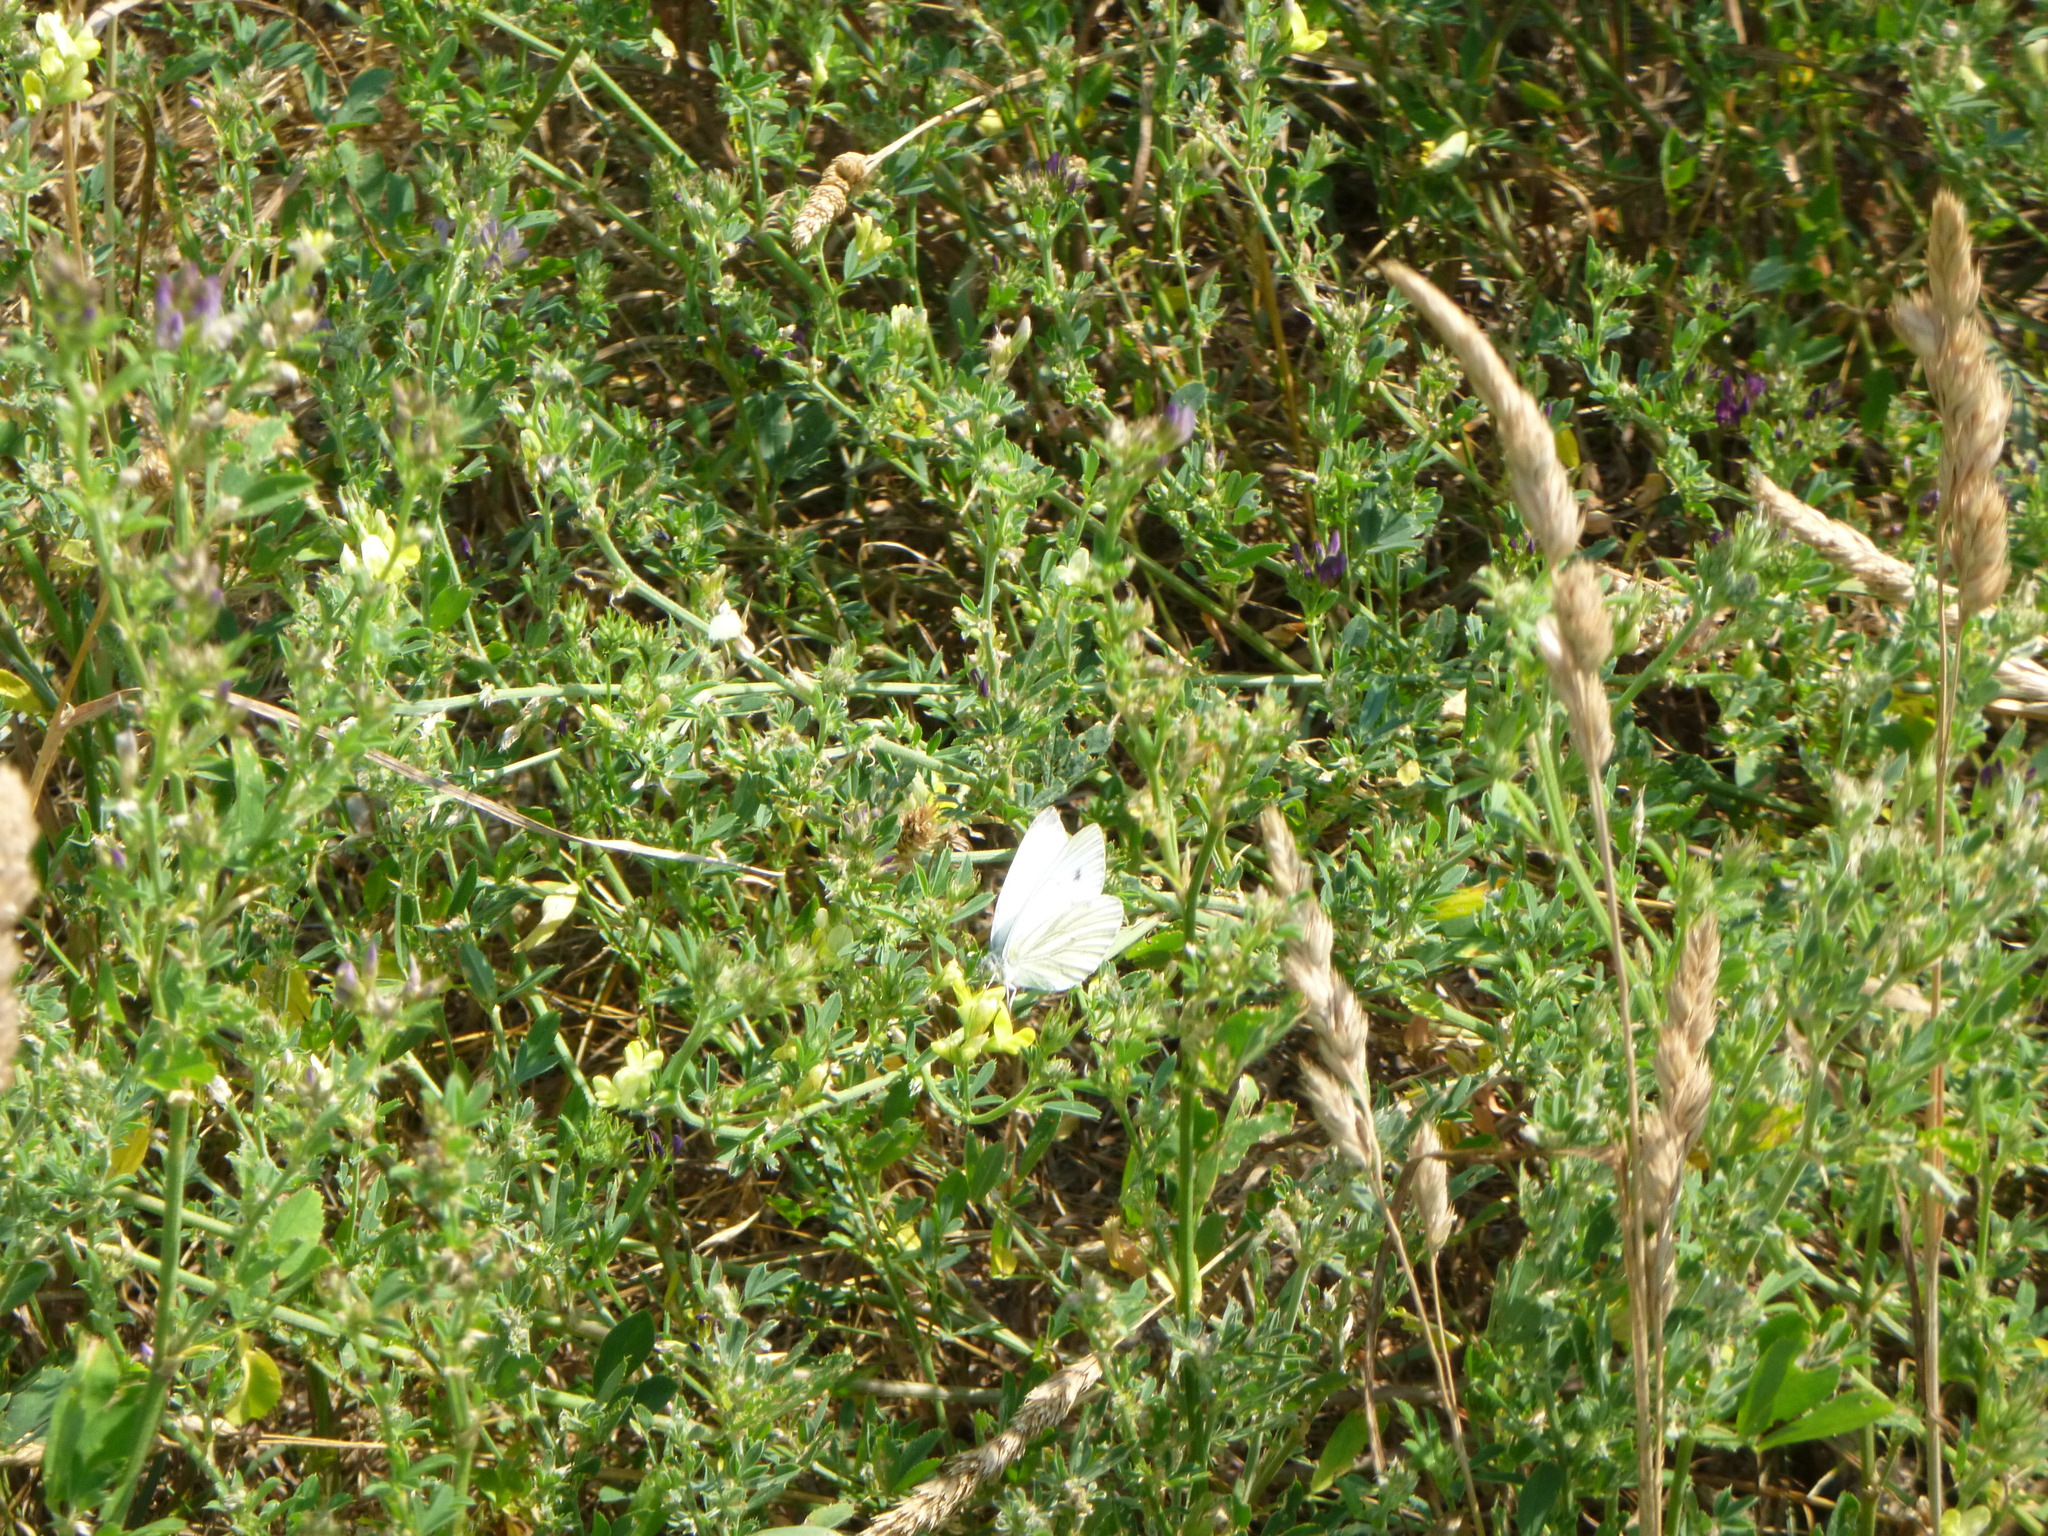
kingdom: Animalia
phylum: Arthropoda
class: Insecta
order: Lepidoptera
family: Pieridae
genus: Pieris
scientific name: Pieris napi
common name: Green-veined white
